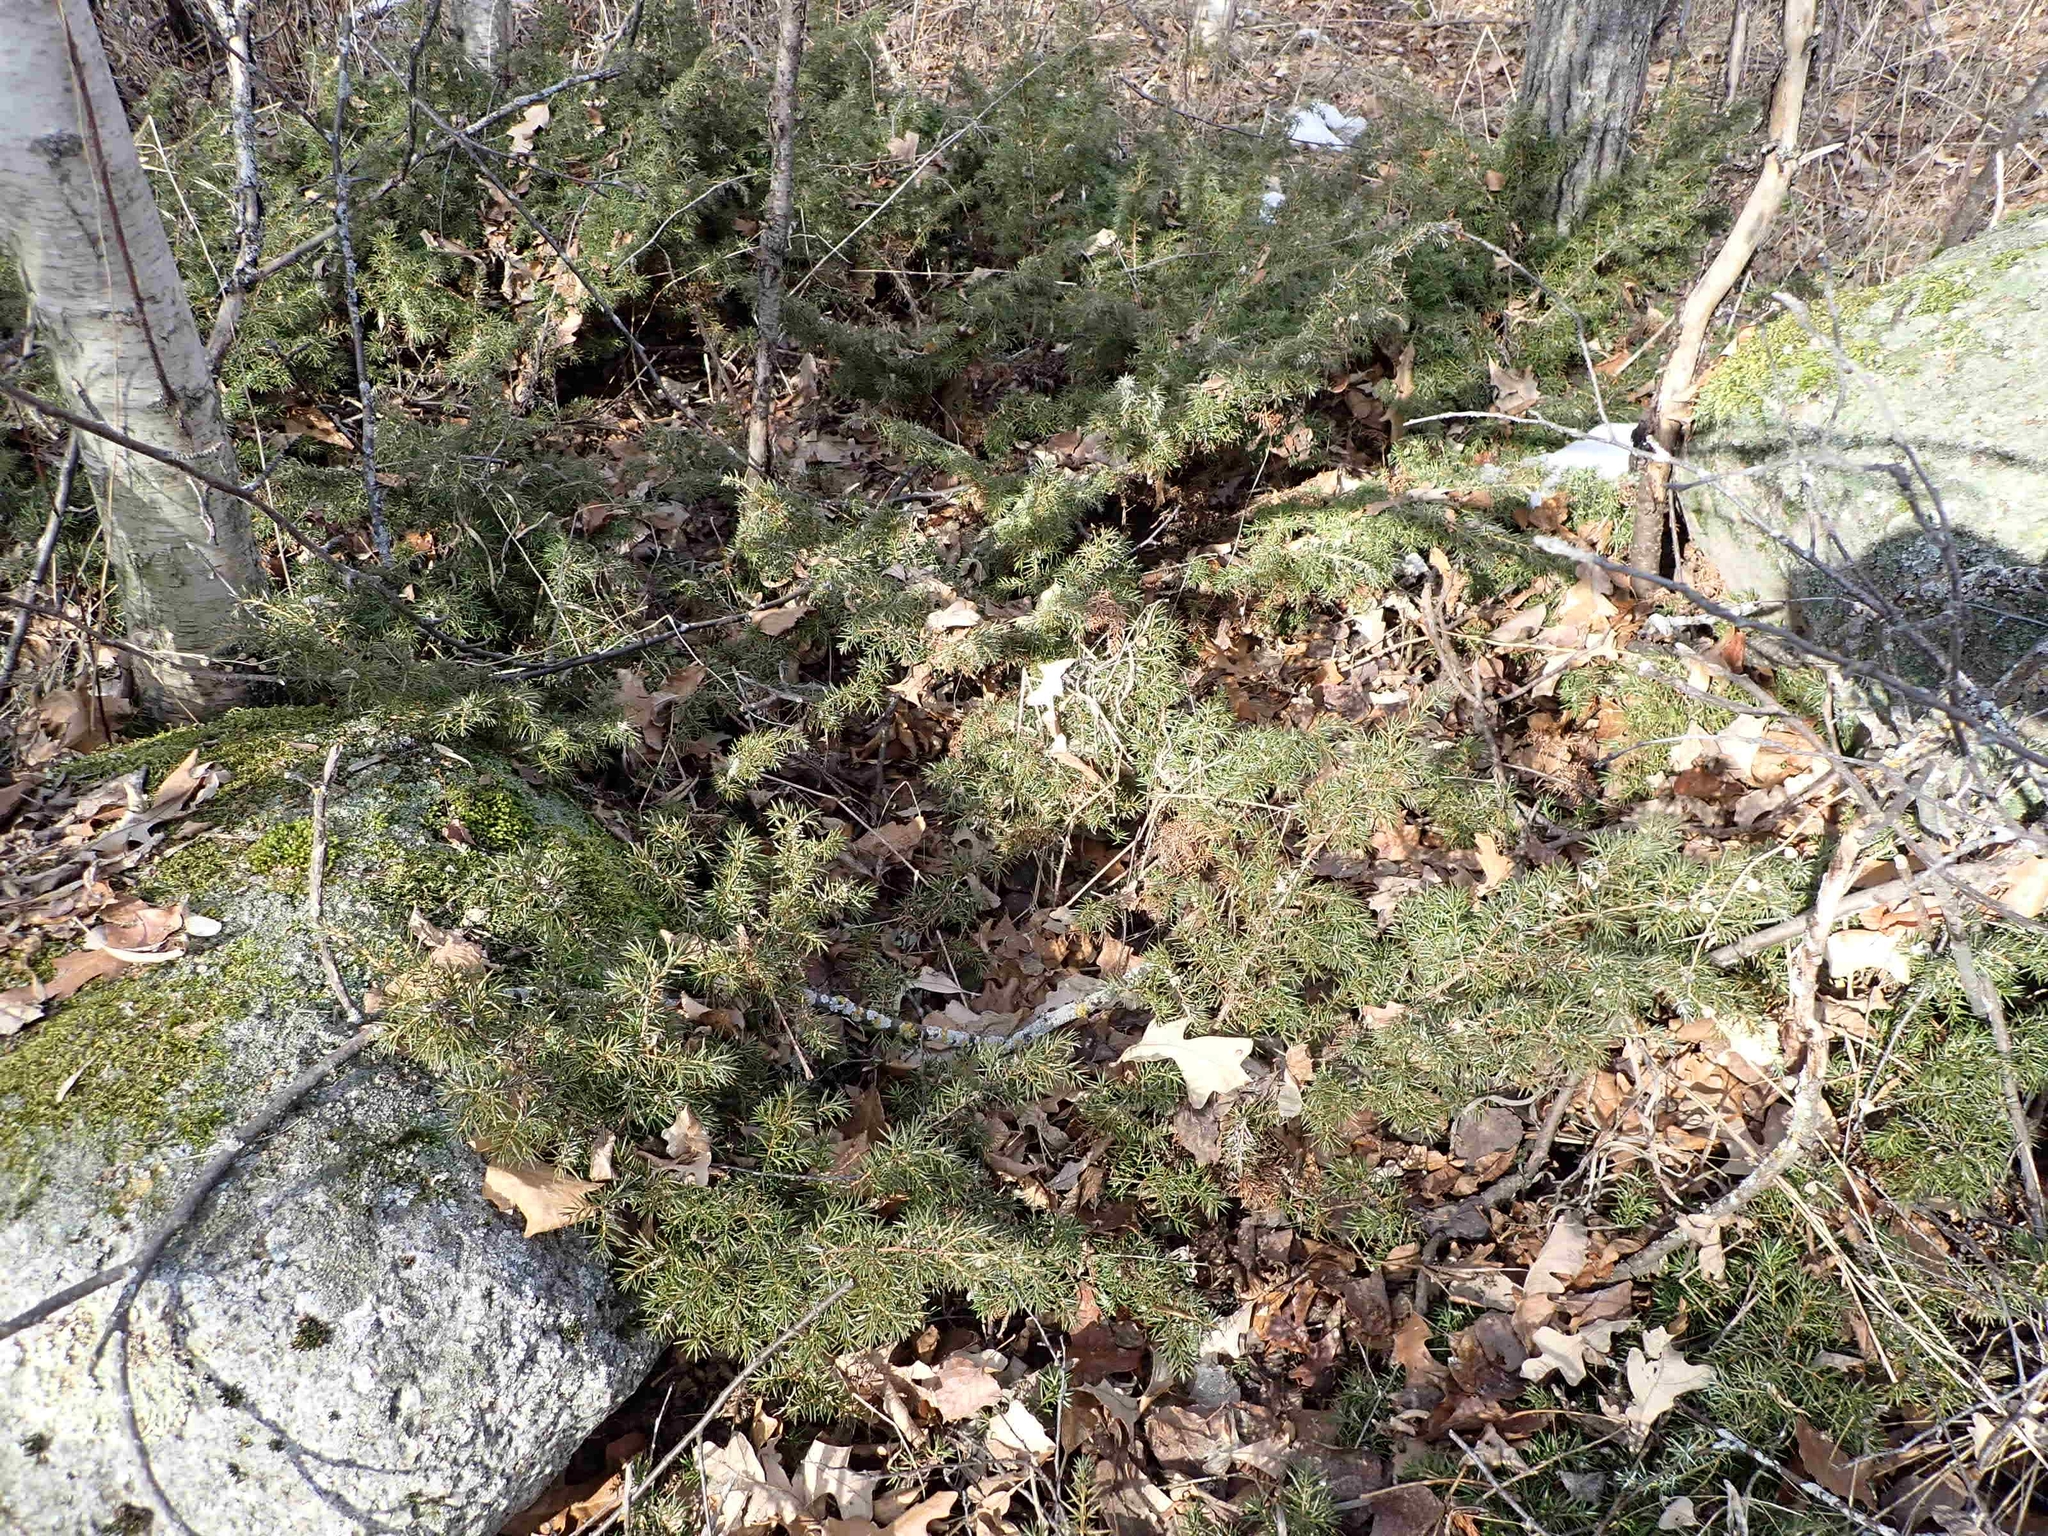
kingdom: Plantae
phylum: Tracheophyta
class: Pinopsida
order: Pinales
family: Cupressaceae
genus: Juniperus
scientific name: Juniperus communis
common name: Common juniper
